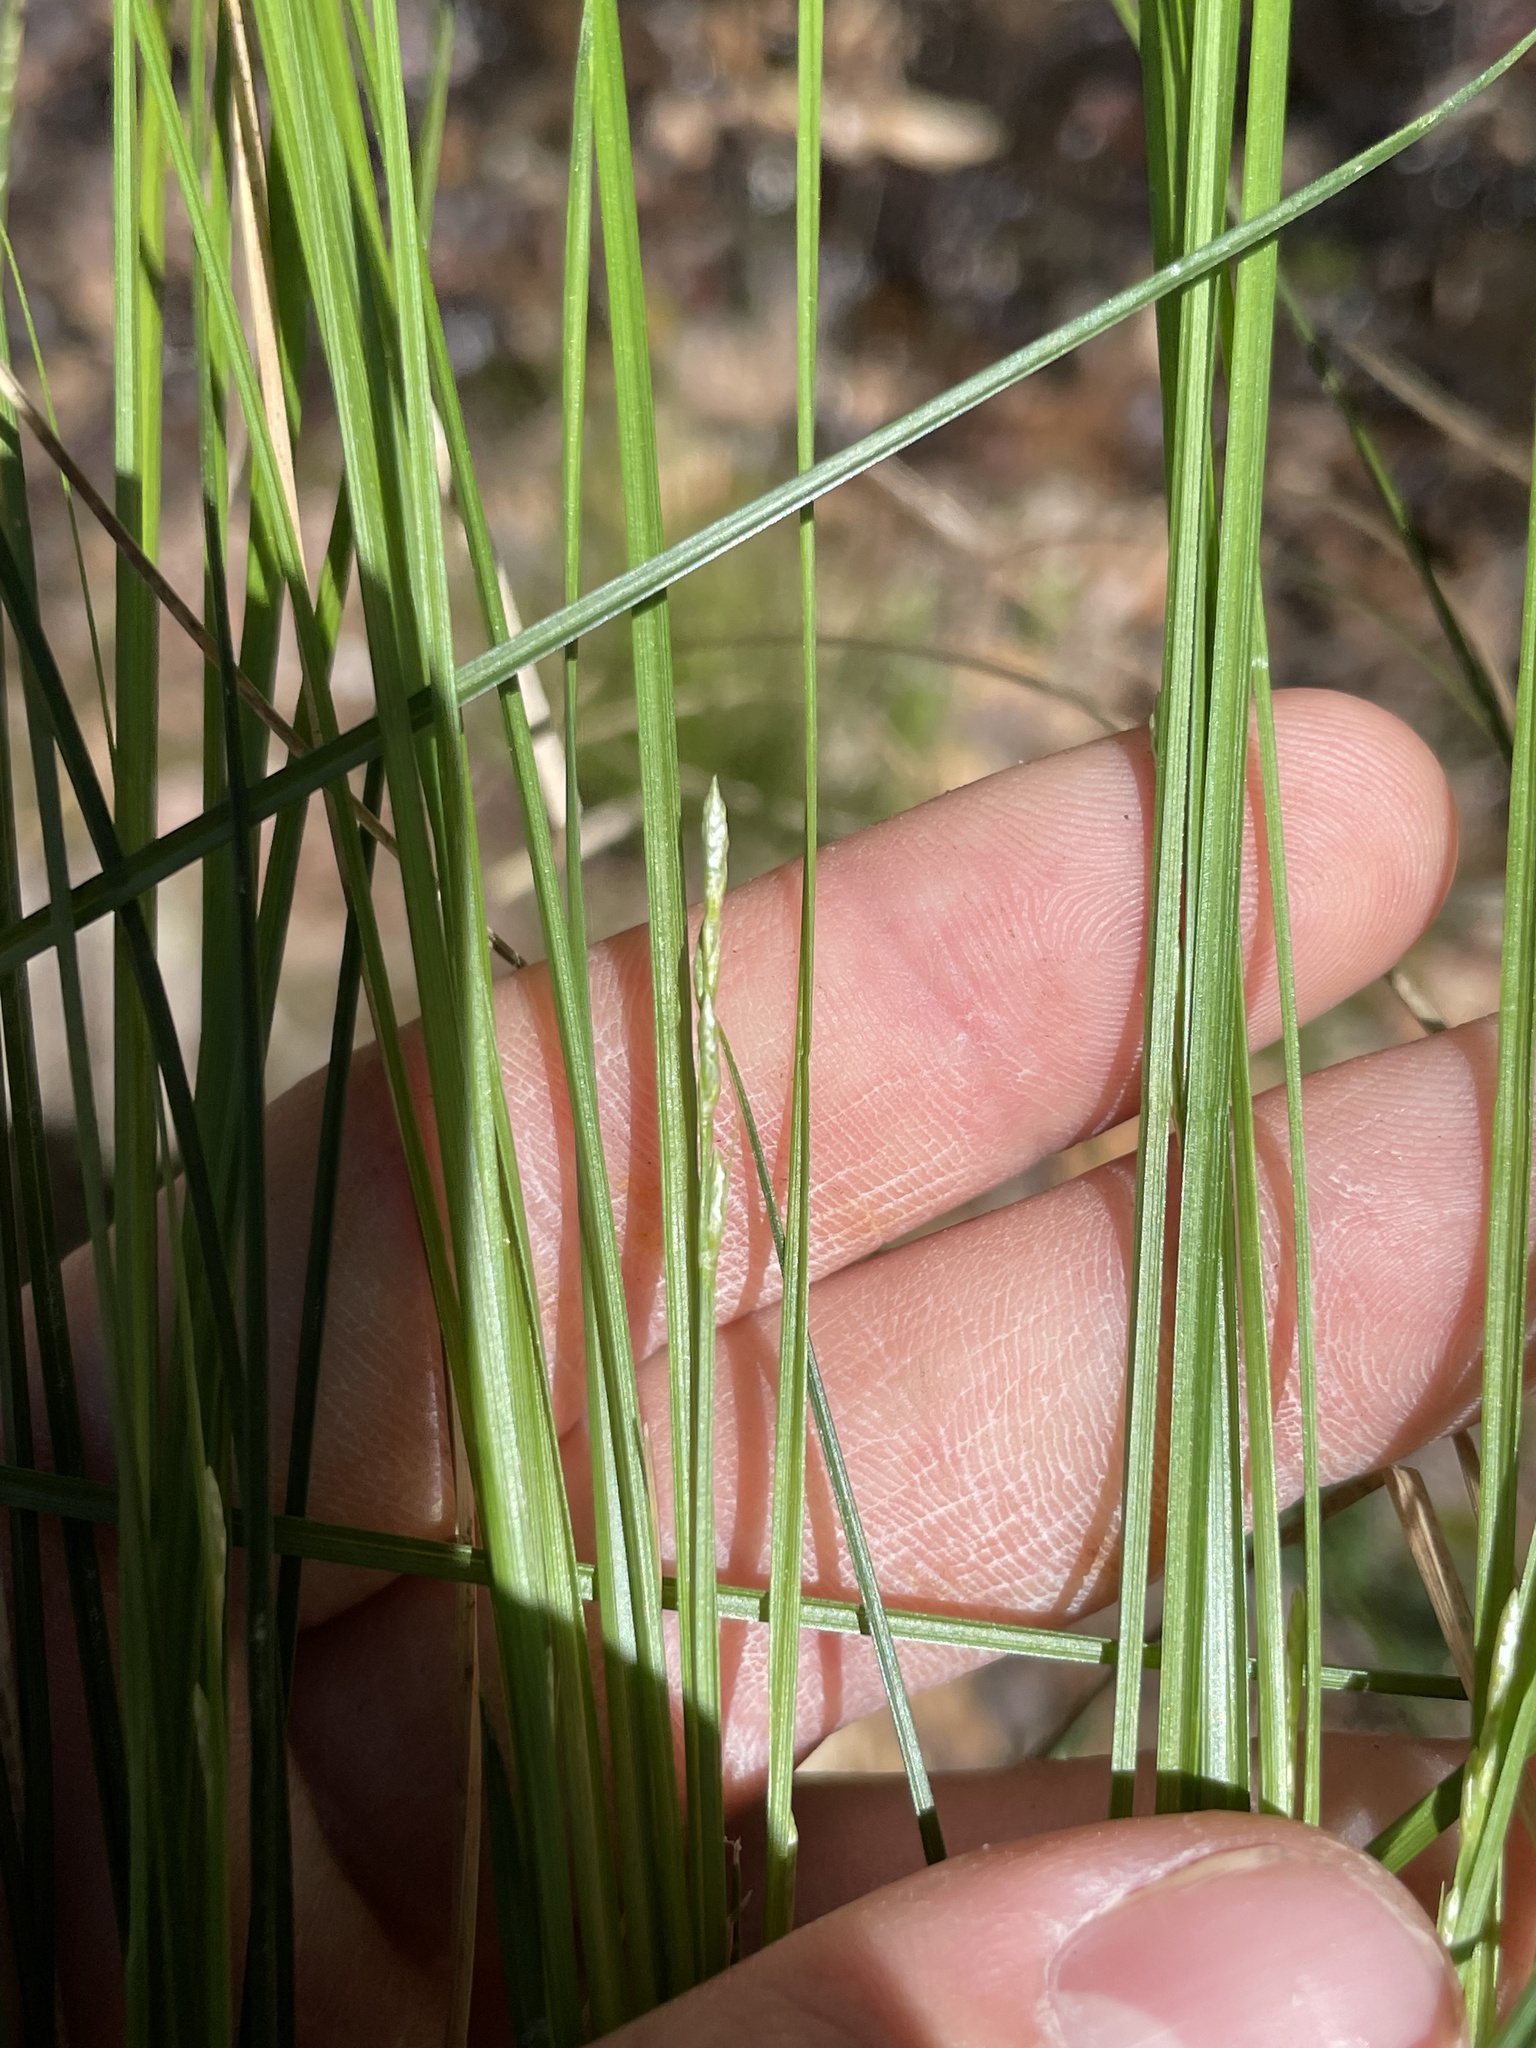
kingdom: Plantae
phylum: Tracheophyta
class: Liliopsida
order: Poales
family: Cyperaceae
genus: Carex
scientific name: Carex bromoides
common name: Brome hummock sedge
